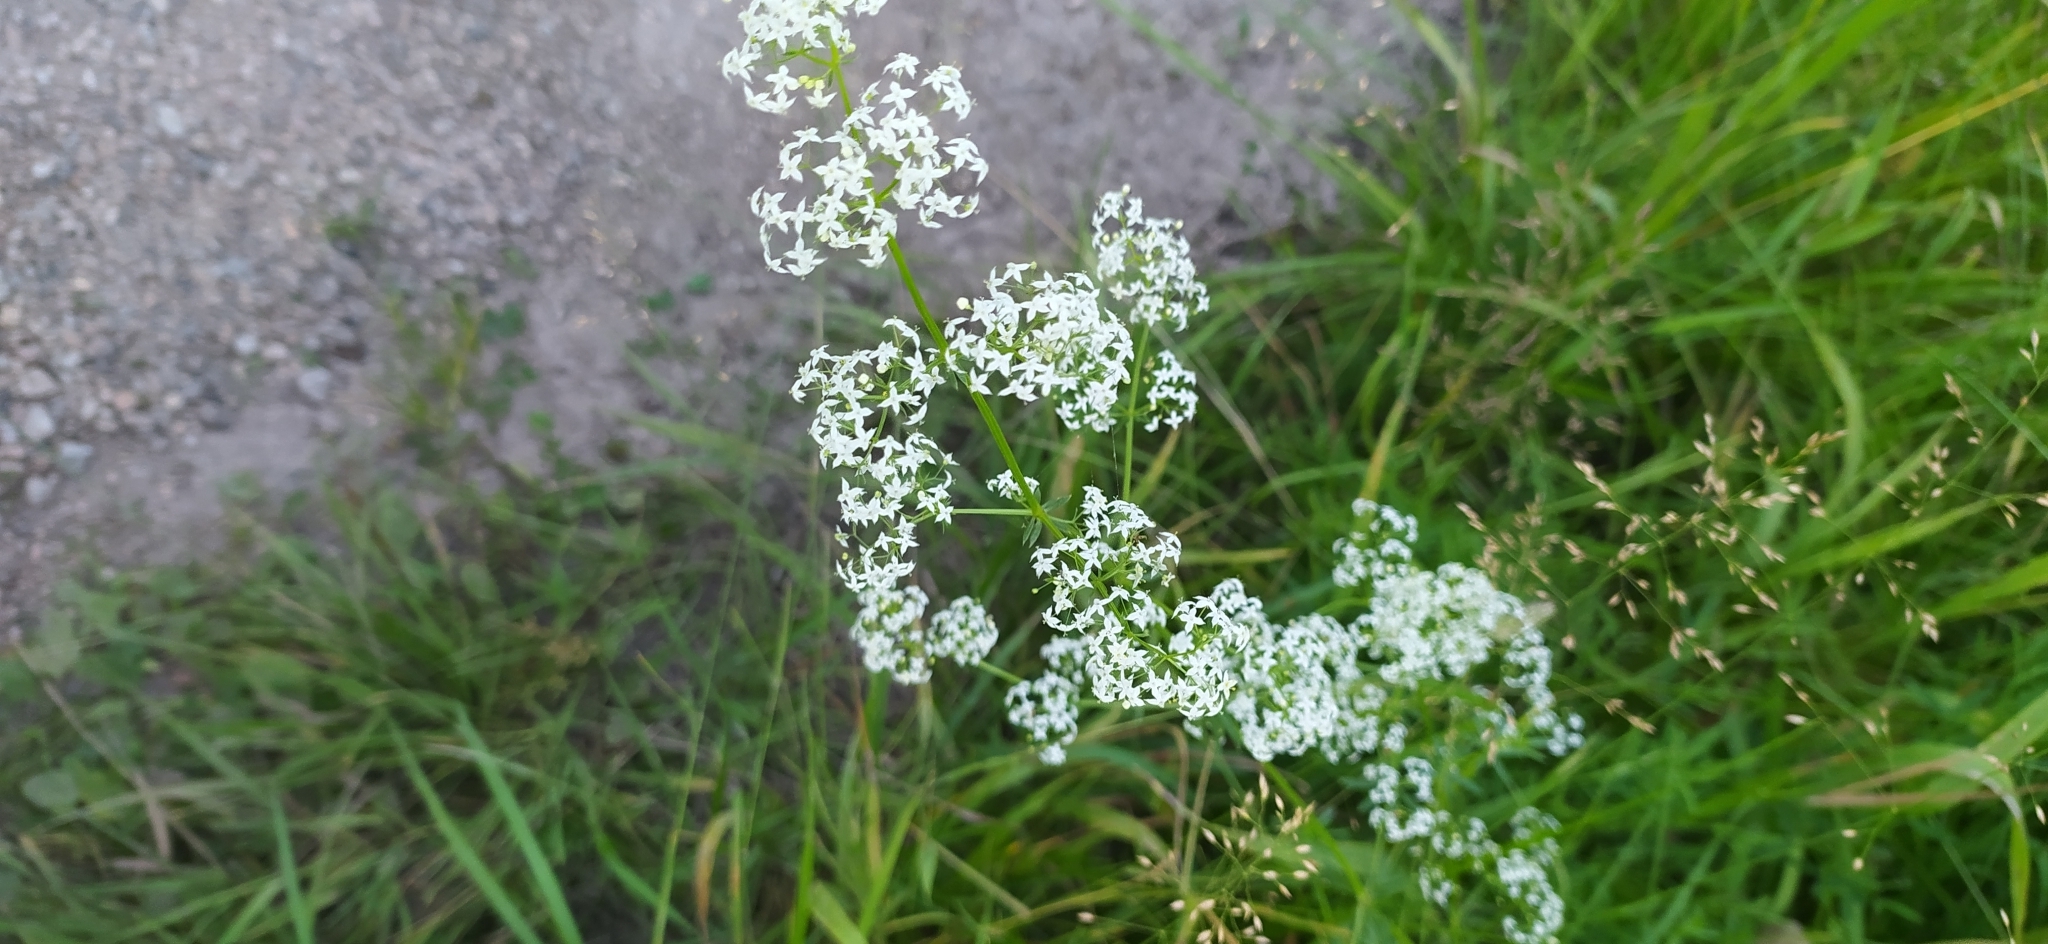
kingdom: Plantae
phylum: Tracheophyta
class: Magnoliopsida
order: Gentianales
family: Rubiaceae
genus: Galium
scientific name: Galium mollugo
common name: Hedge bedstraw
